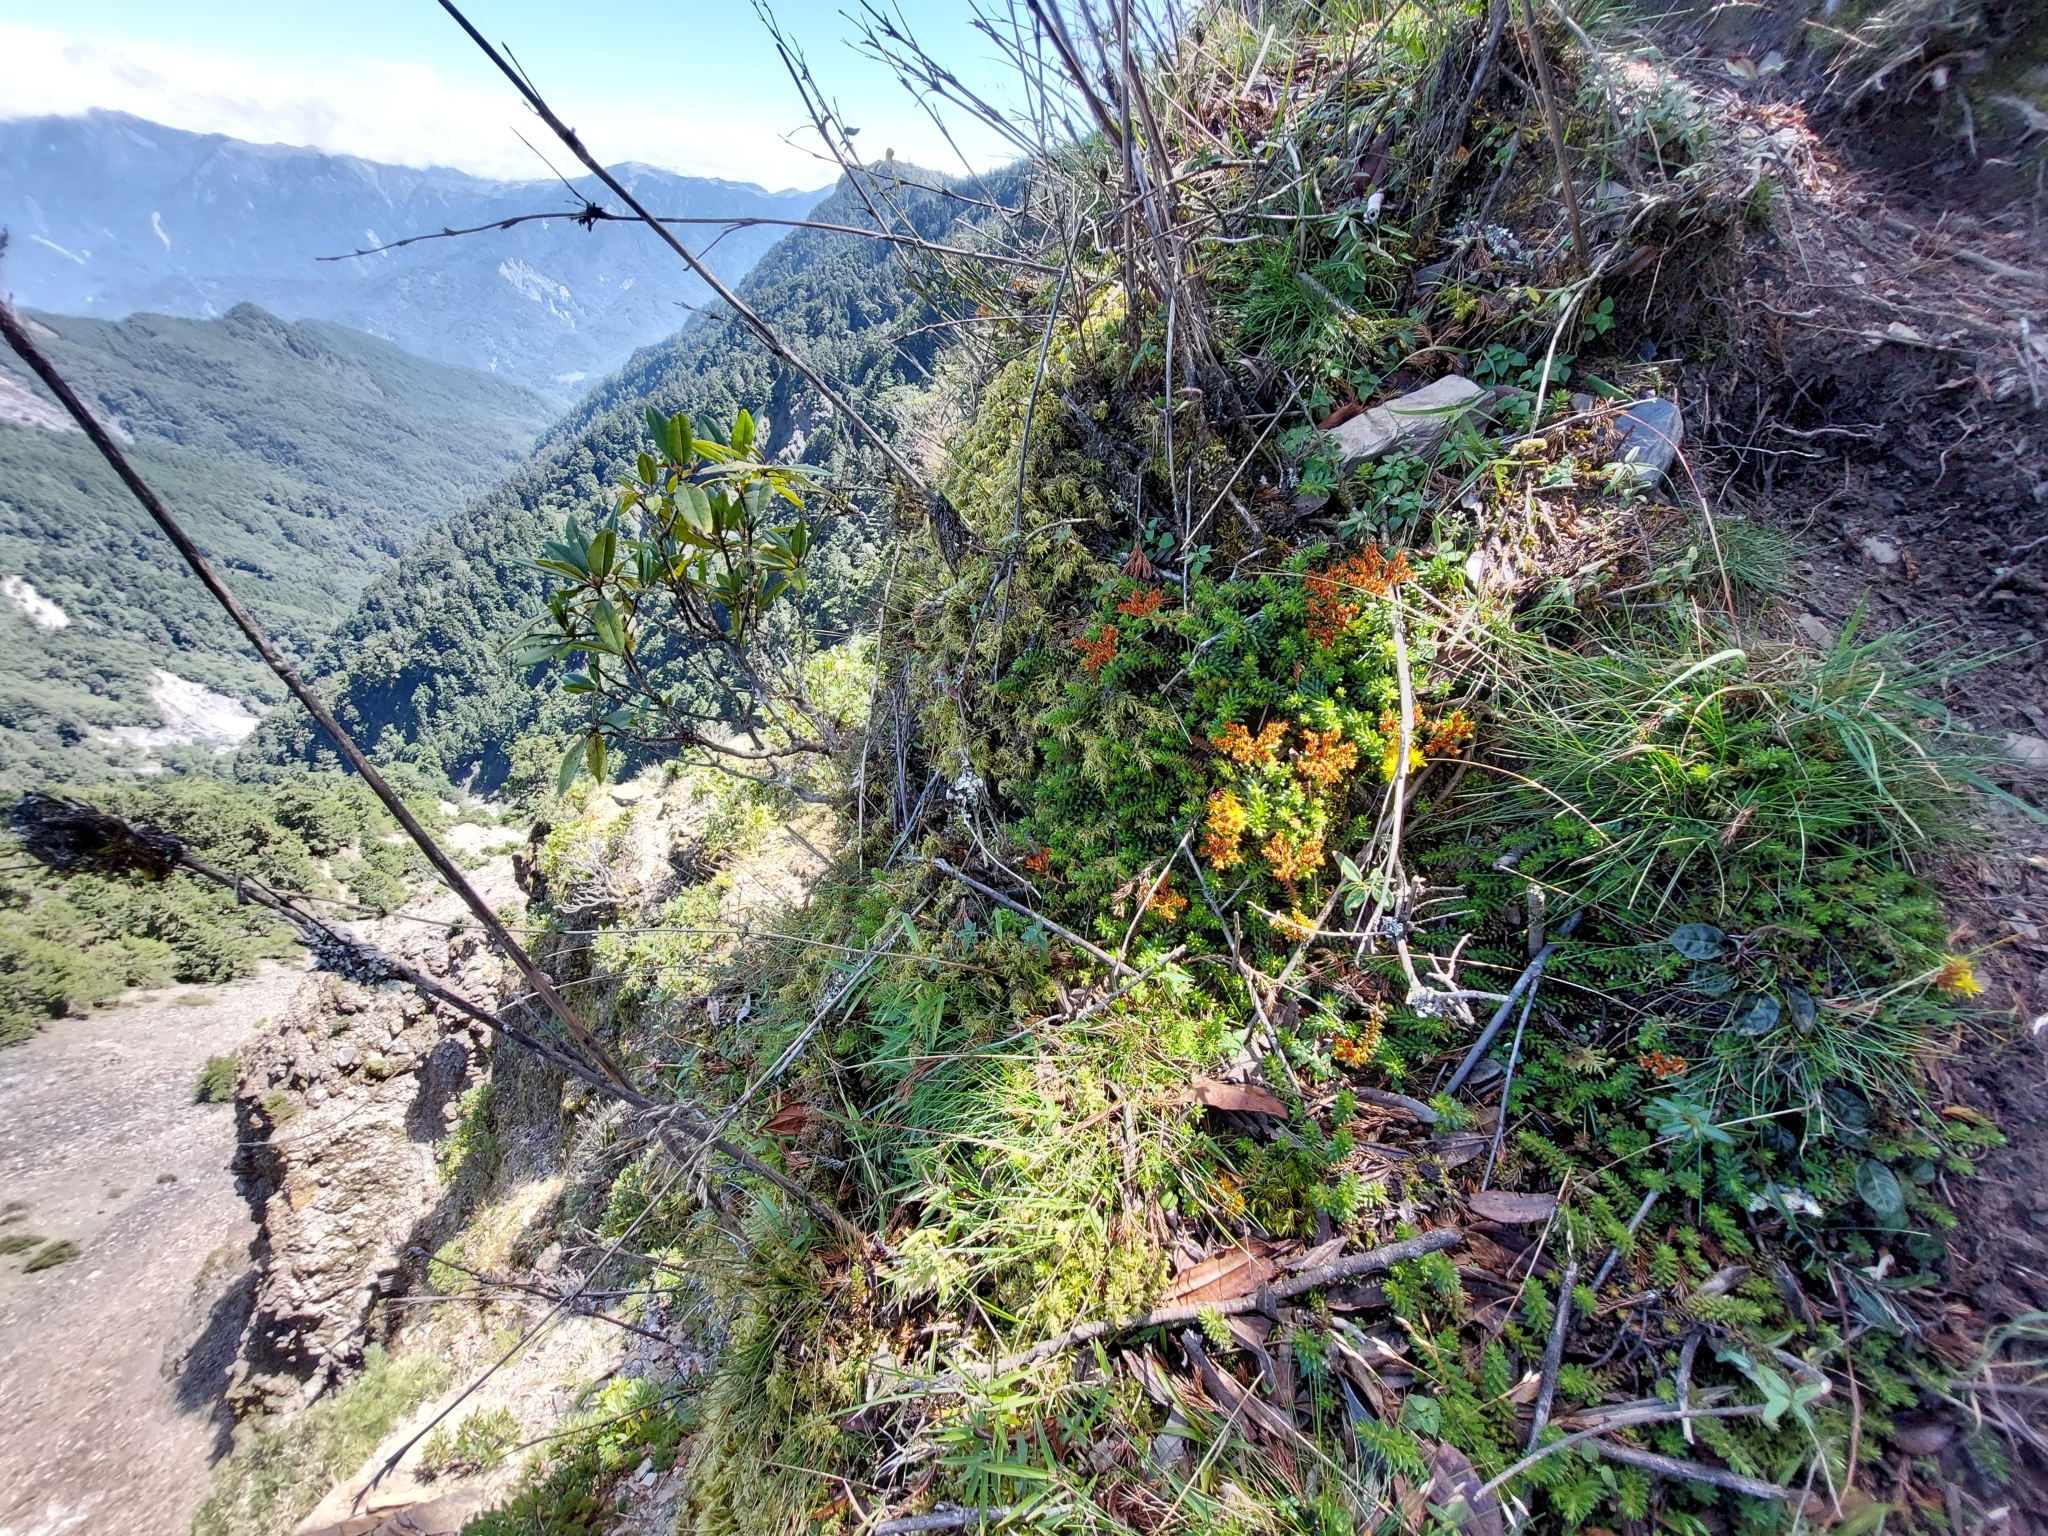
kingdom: Plantae
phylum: Tracheophyta
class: Magnoliopsida
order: Saxifragales
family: Crassulaceae
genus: Sedum
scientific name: Sedum morrisonense
